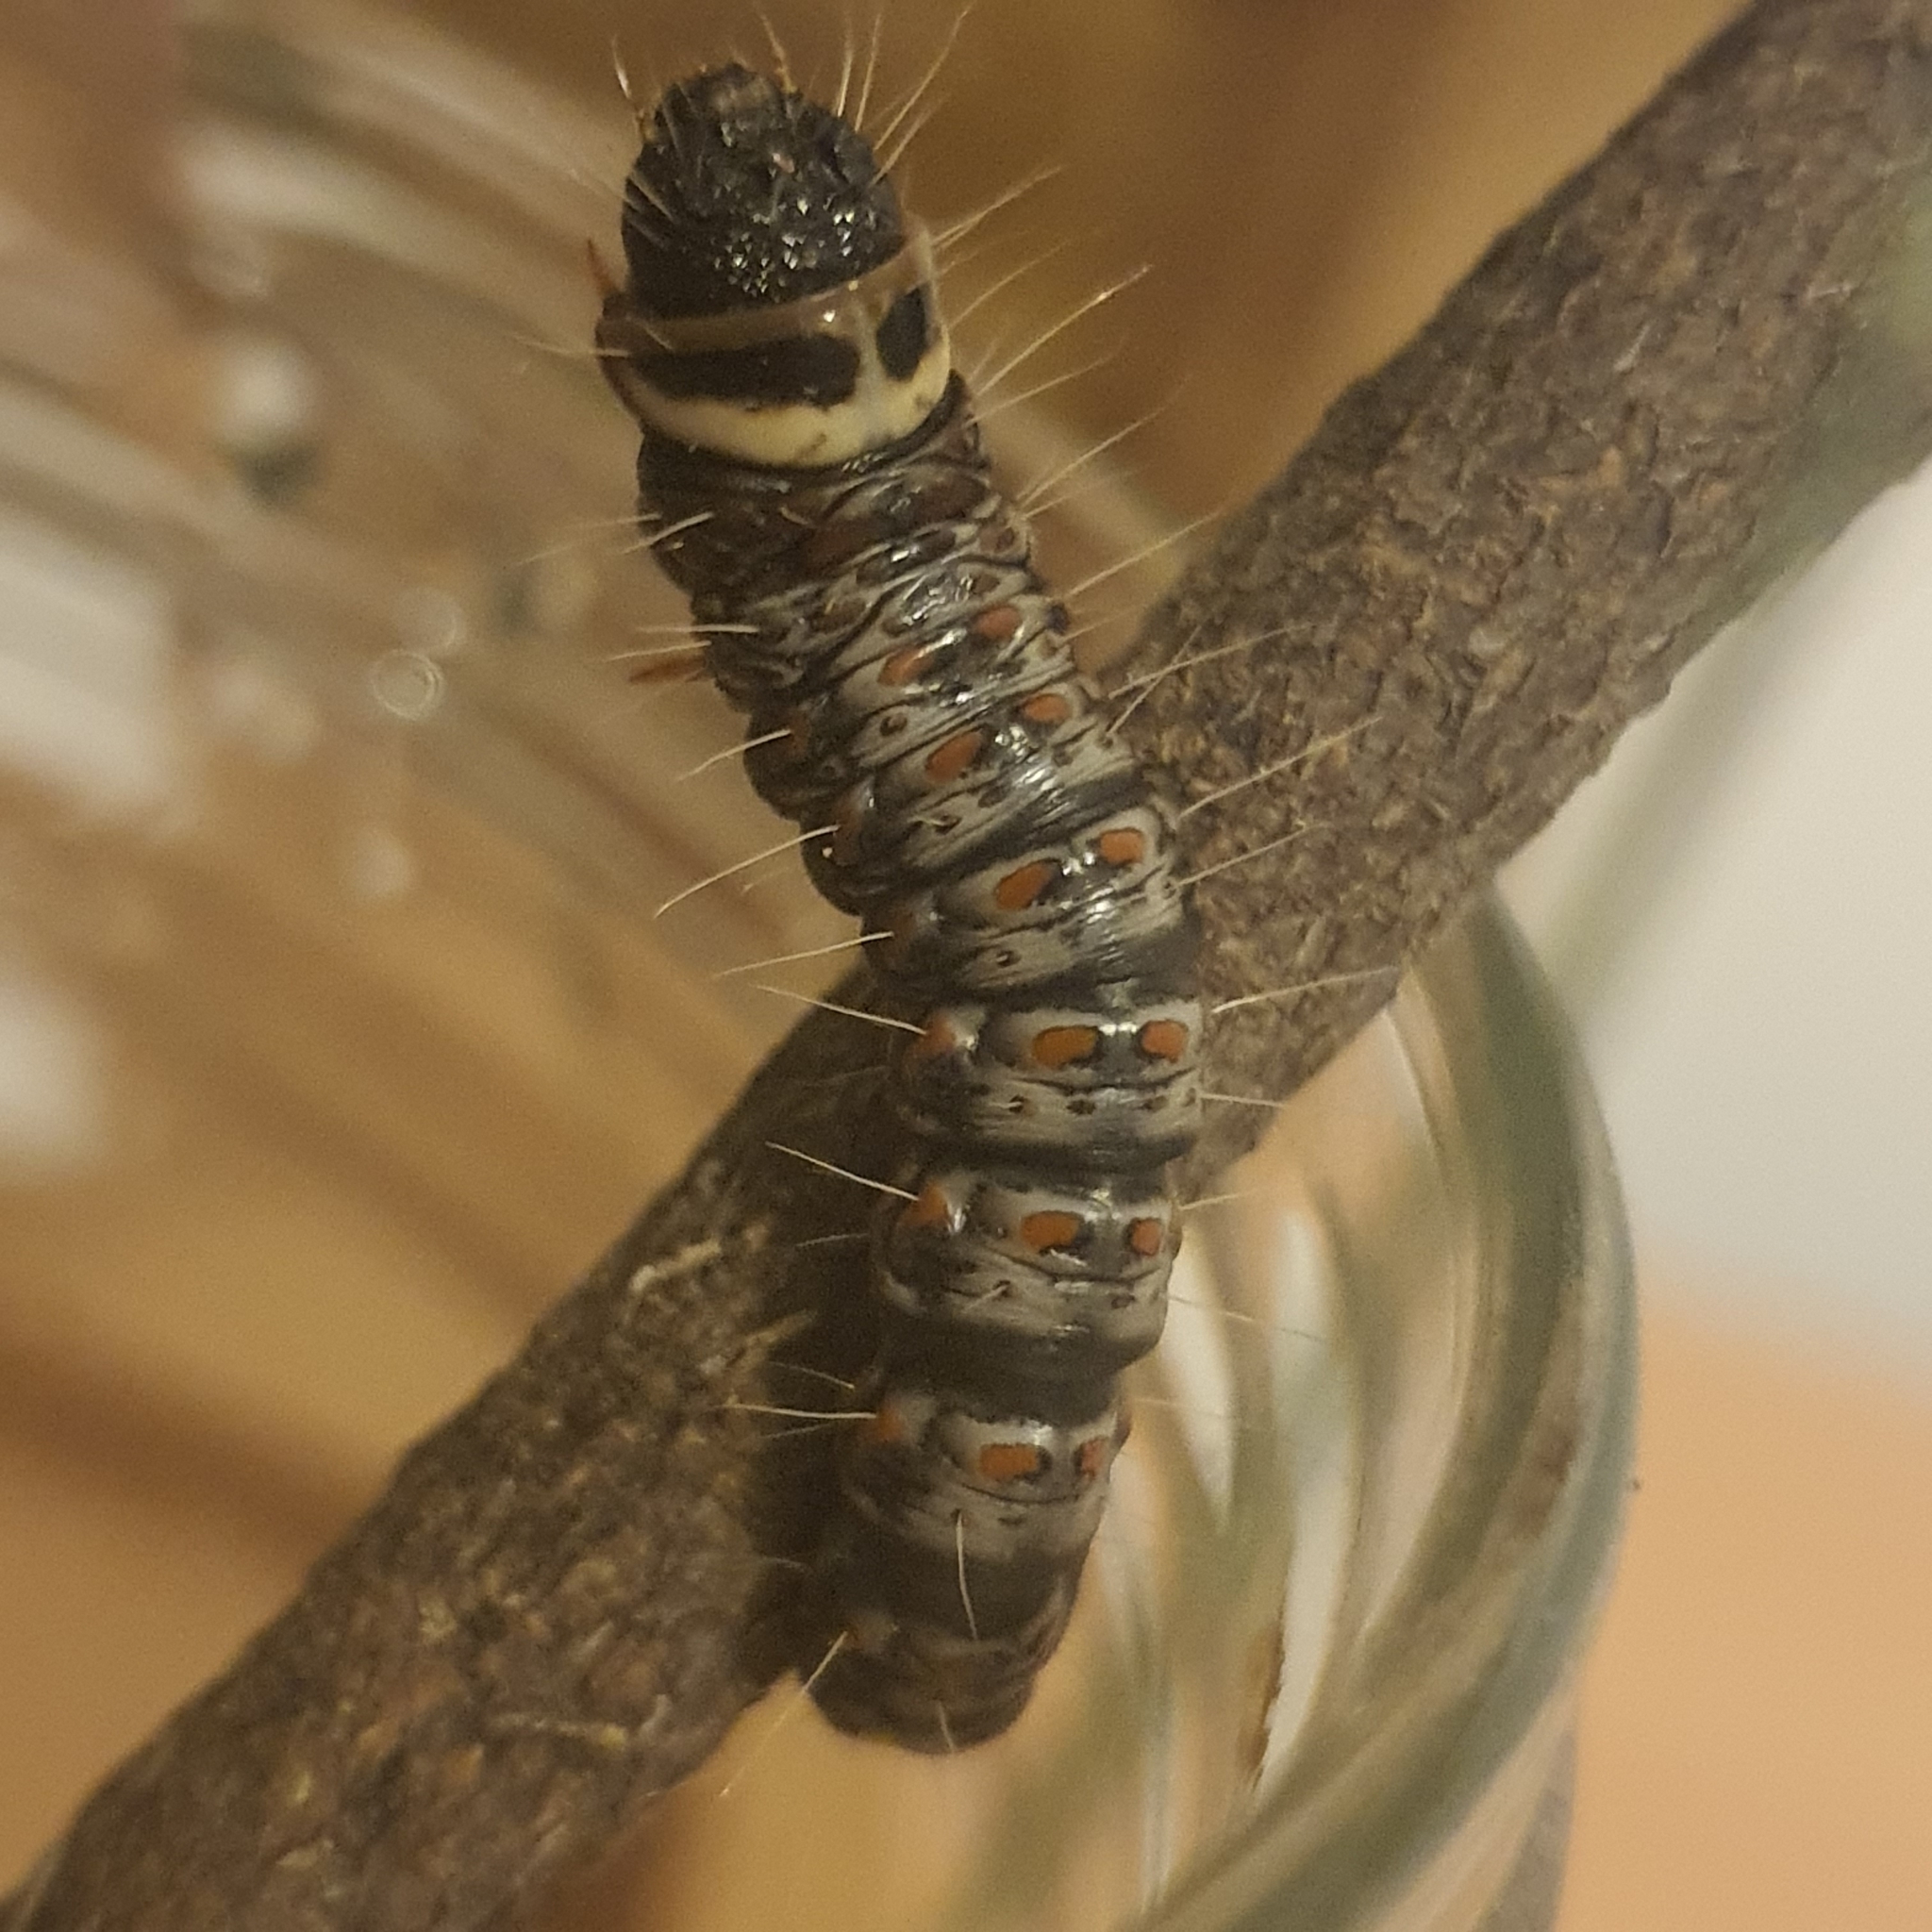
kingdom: Animalia
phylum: Arthropoda
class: Insecta
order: Lepidoptera
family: Xyloryctidae
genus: Cryptophasa
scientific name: Cryptophasa irrorata
